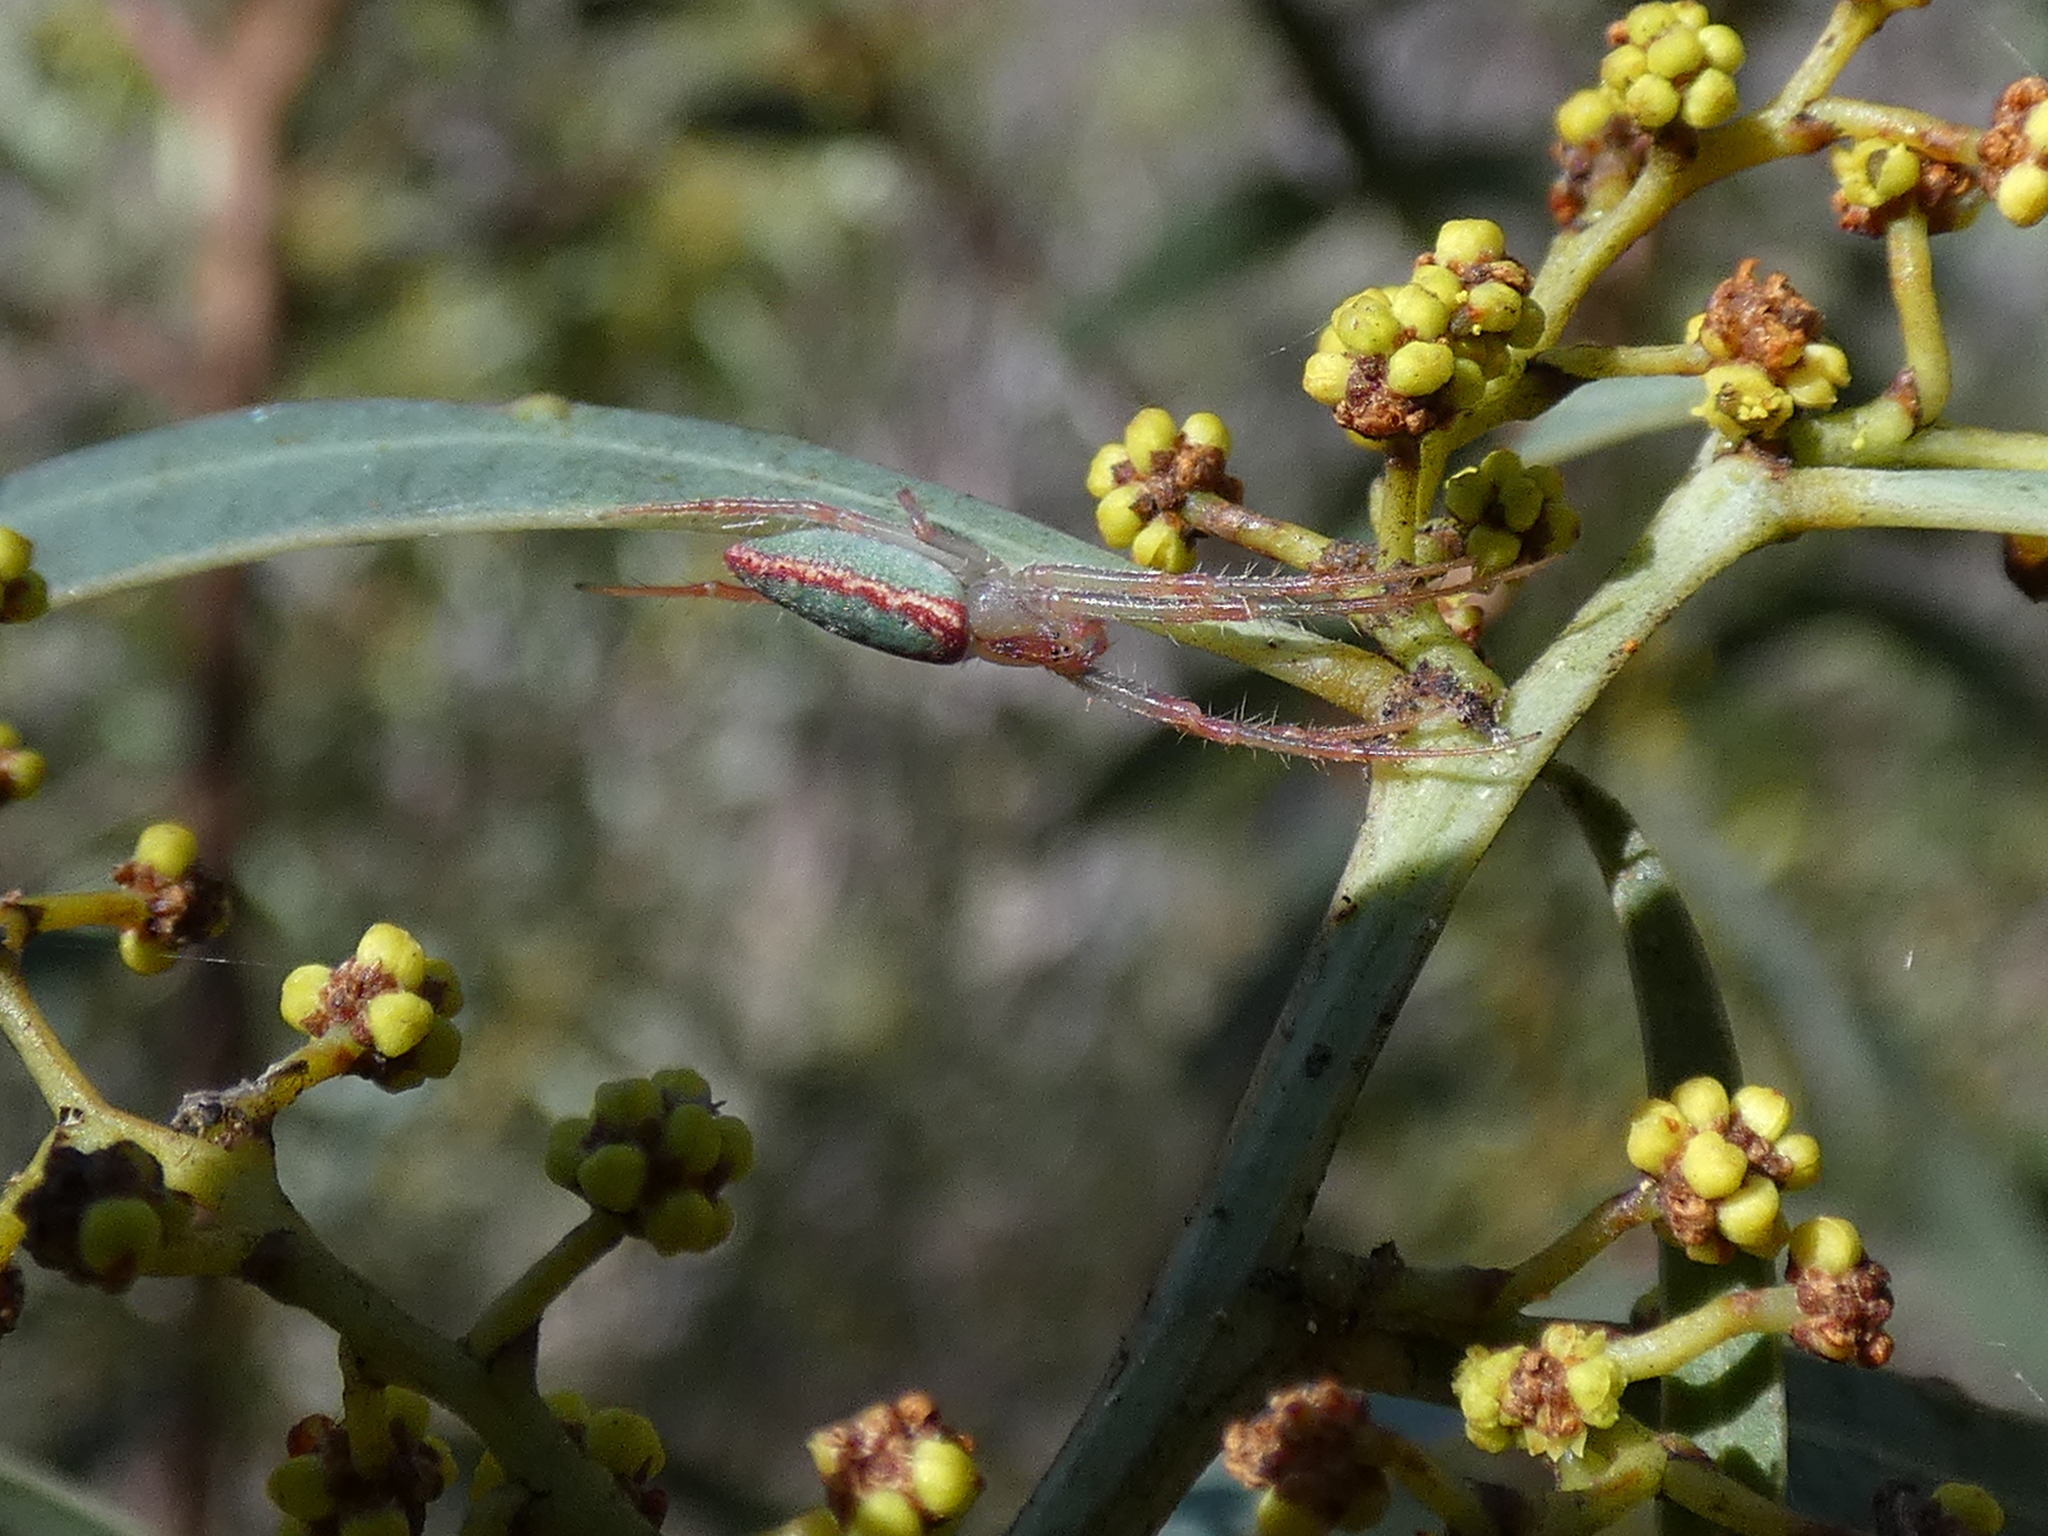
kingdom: Animalia
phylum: Arthropoda
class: Arachnida
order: Araneae
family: Araneidae
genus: Araneus
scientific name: Araneus talipedatus
